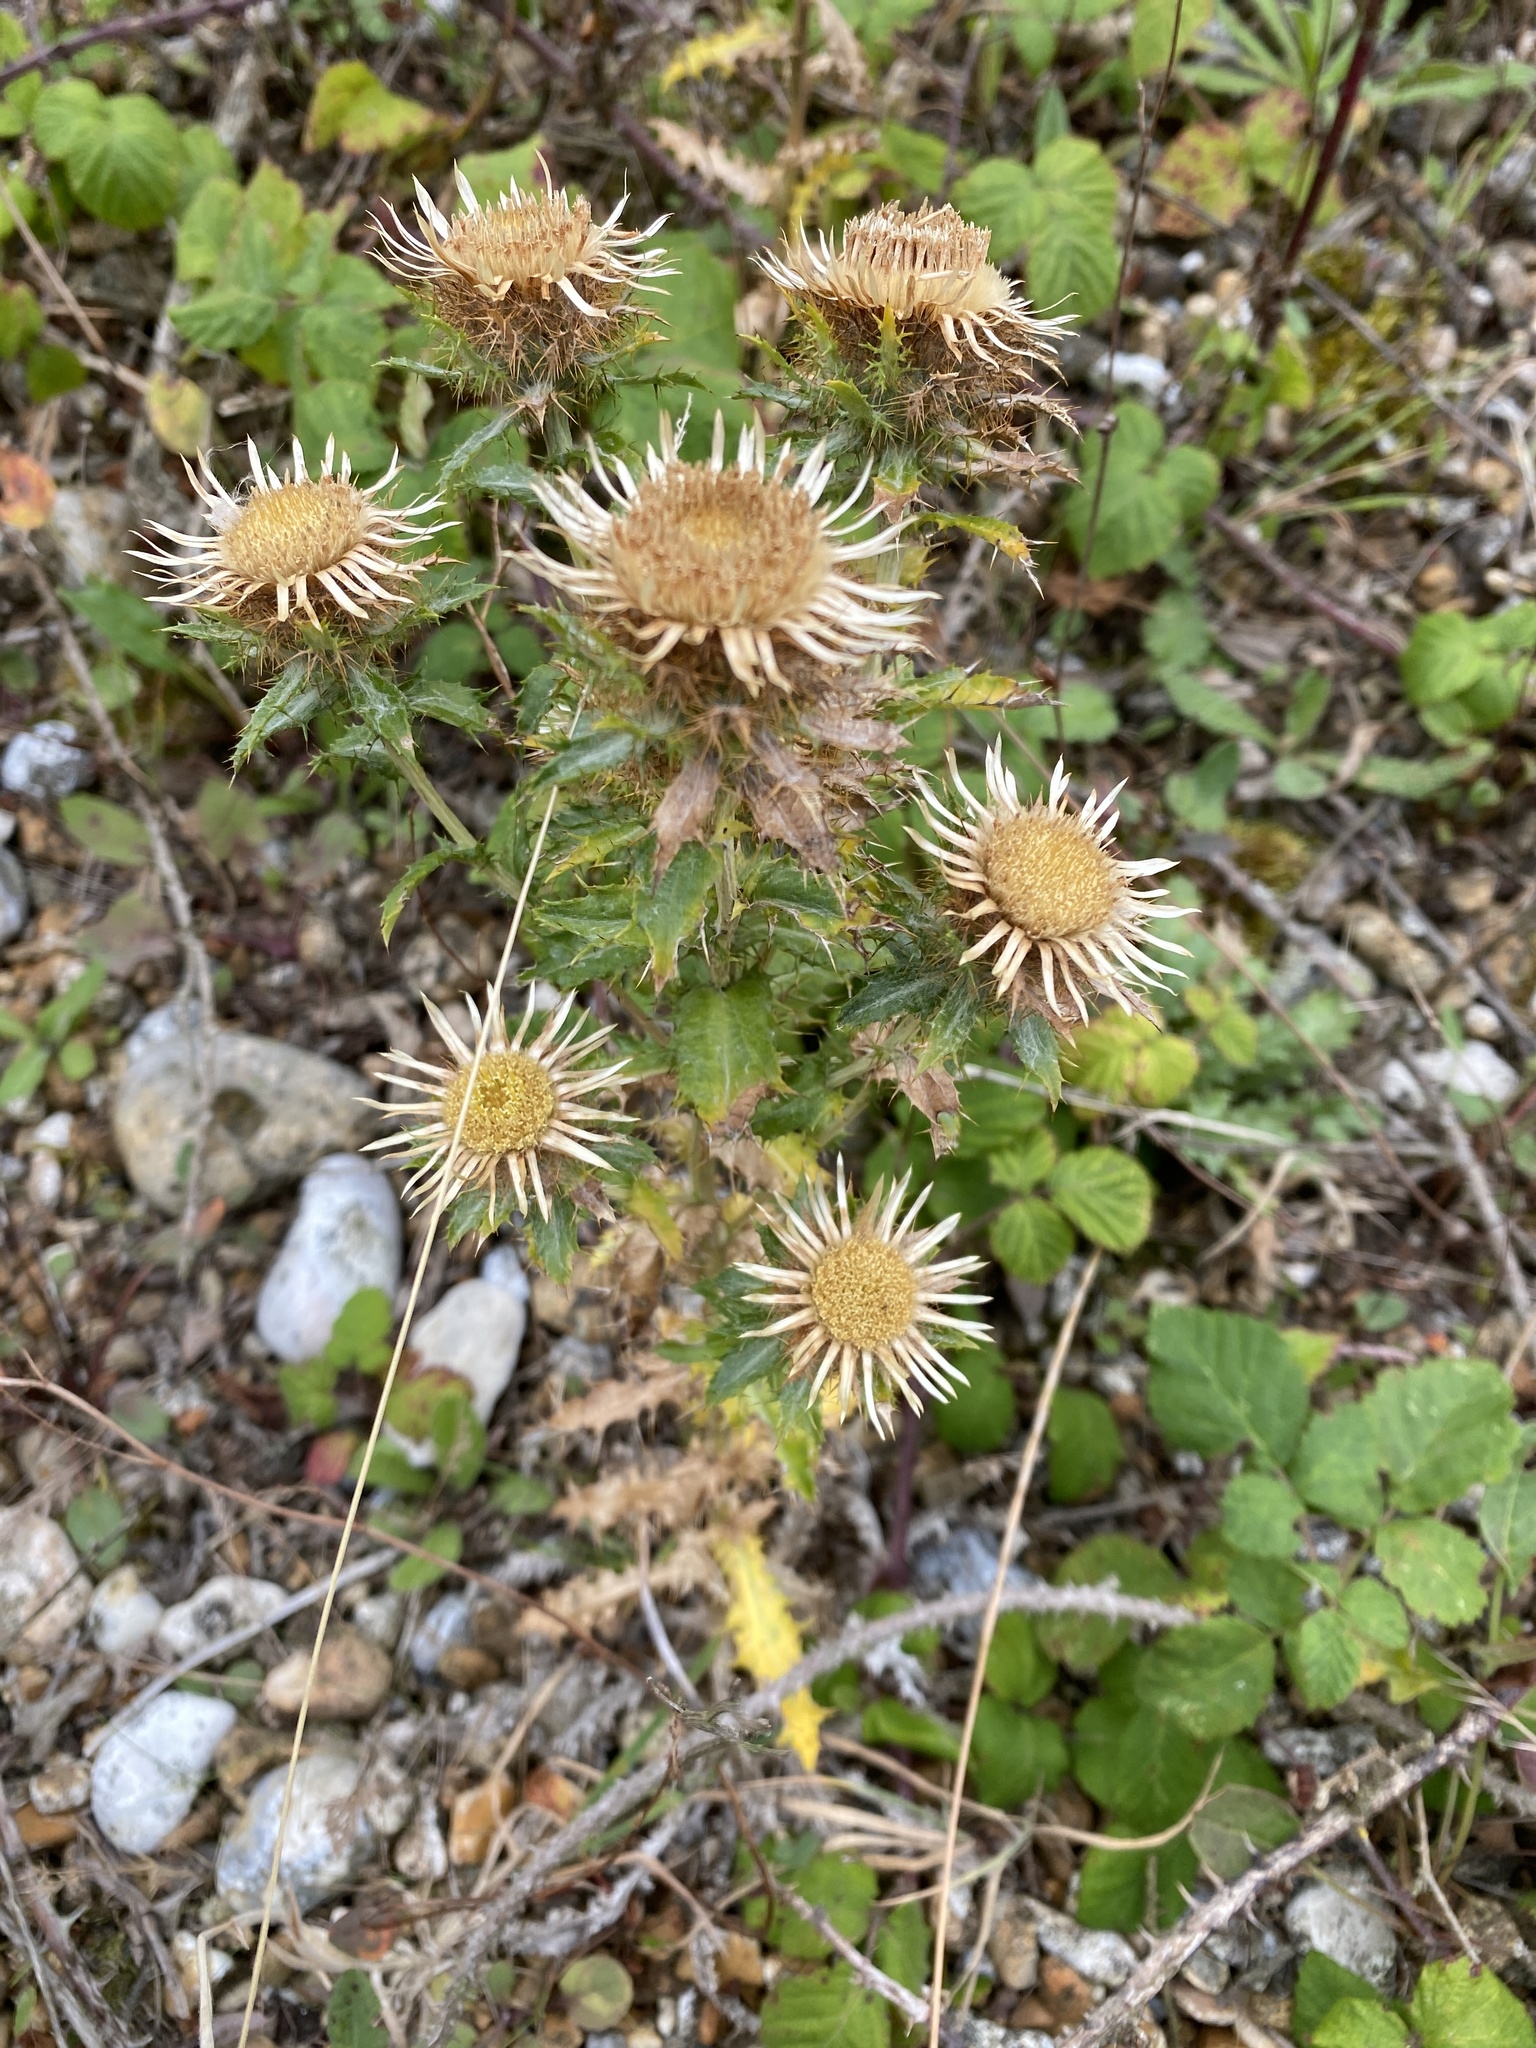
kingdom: Plantae
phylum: Tracheophyta
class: Magnoliopsida
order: Asterales
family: Asteraceae
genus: Carlina
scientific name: Carlina vulgaris
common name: Carline thistle
